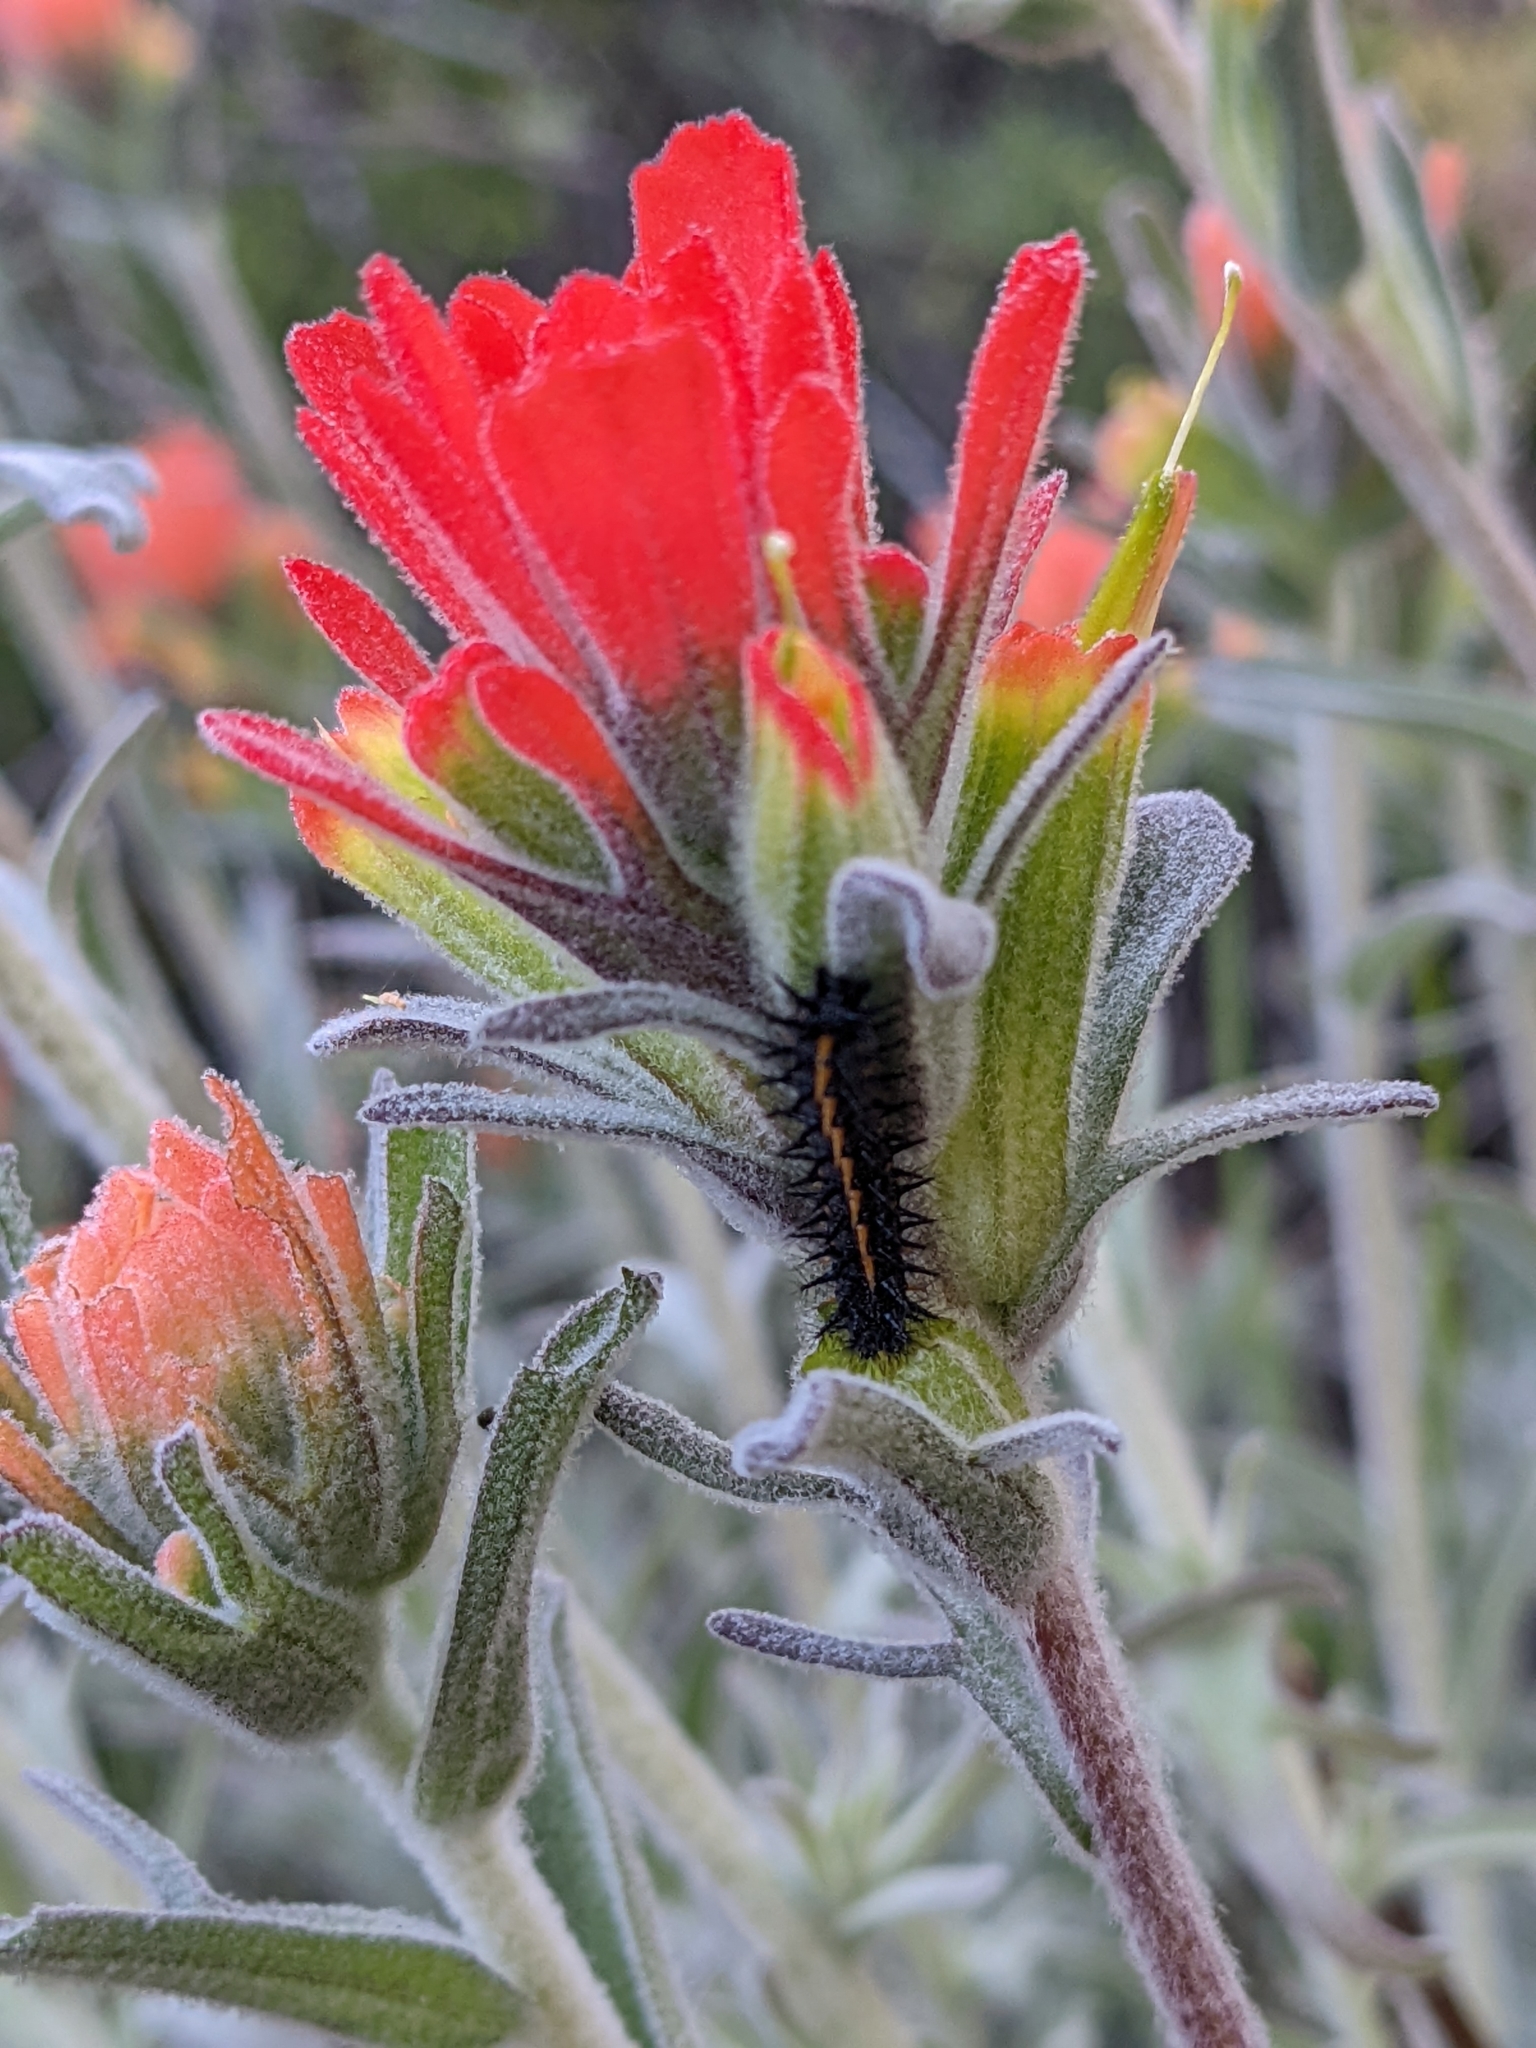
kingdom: Animalia
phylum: Arthropoda
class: Insecta
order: Lepidoptera
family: Nymphalidae
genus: Occidryas
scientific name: Occidryas chalcedona
